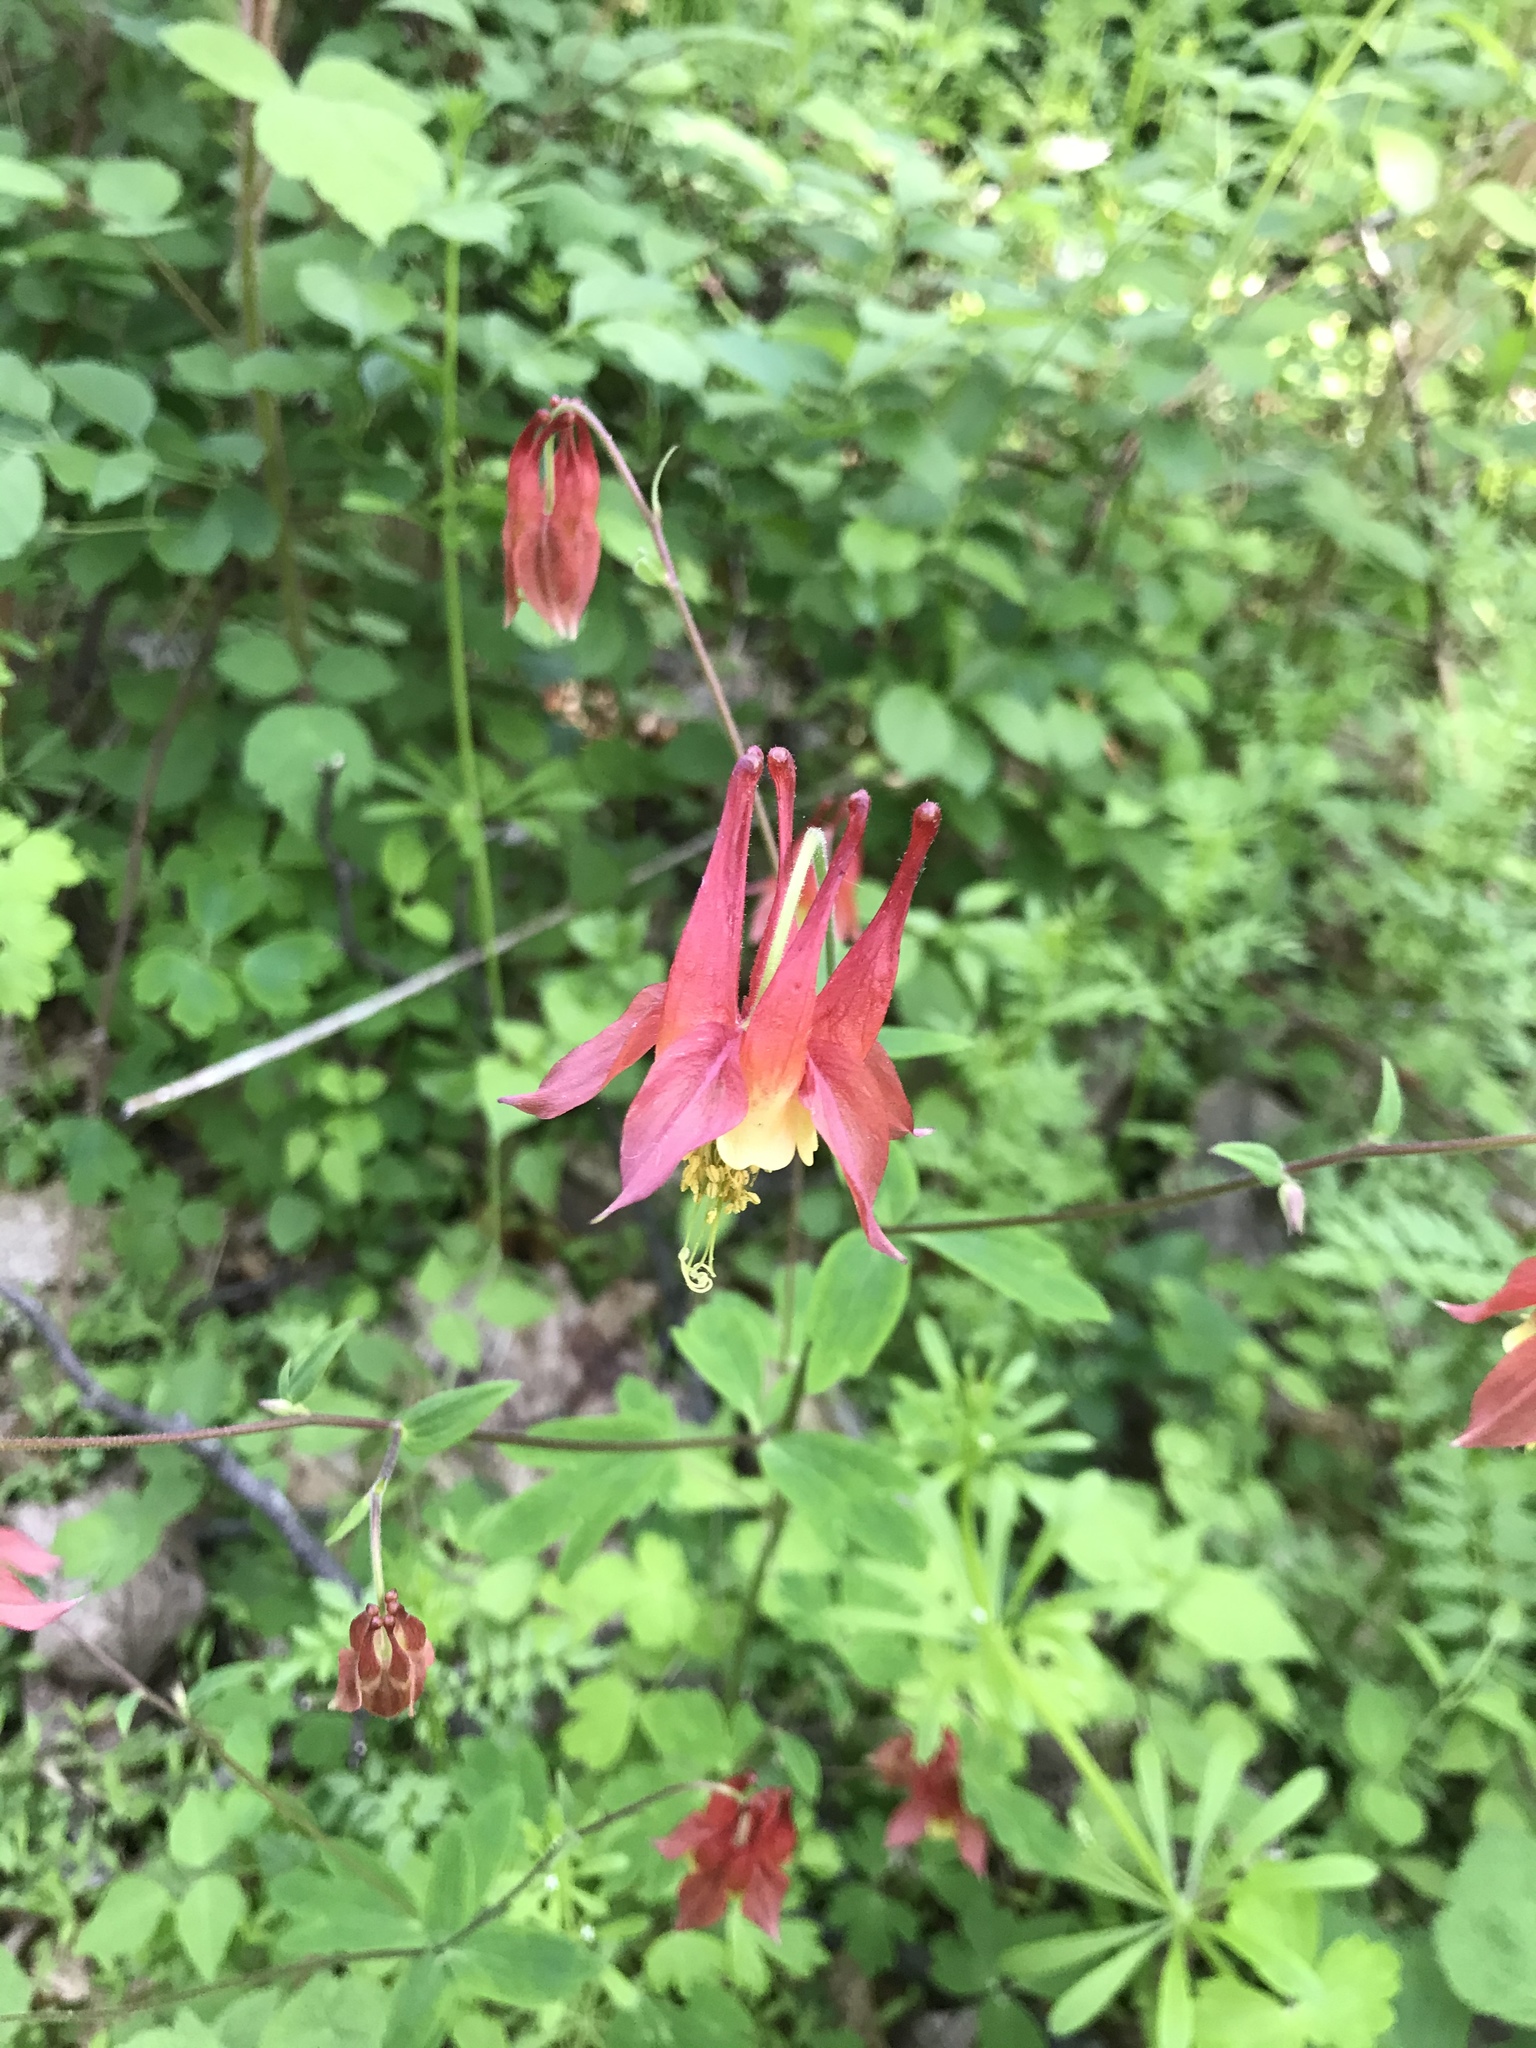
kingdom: Plantae
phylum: Tracheophyta
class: Magnoliopsida
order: Ranunculales
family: Ranunculaceae
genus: Aquilegia
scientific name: Aquilegia canadensis
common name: American columbine
